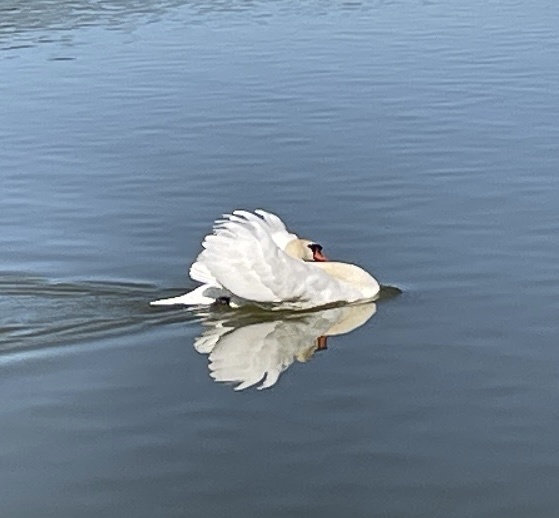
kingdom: Animalia
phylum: Chordata
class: Aves
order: Anseriformes
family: Anatidae
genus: Cygnus
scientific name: Cygnus olor
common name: Mute swan
